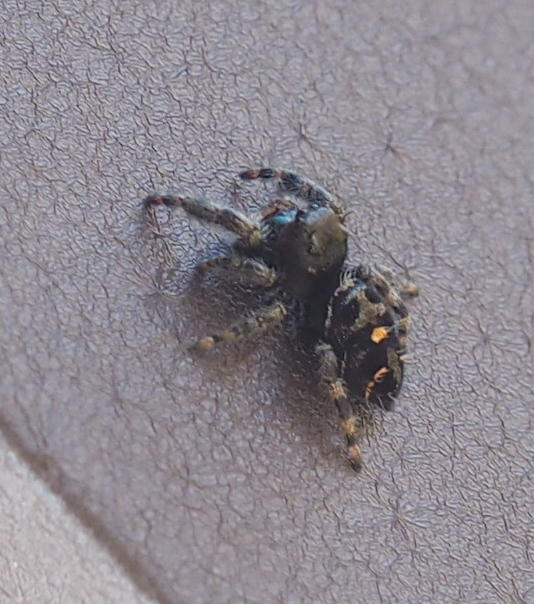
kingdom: Animalia
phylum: Arthropoda
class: Arachnida
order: Araneae
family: Salticidae
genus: Phidippus
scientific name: Phidippus audax
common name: Bold jumper
